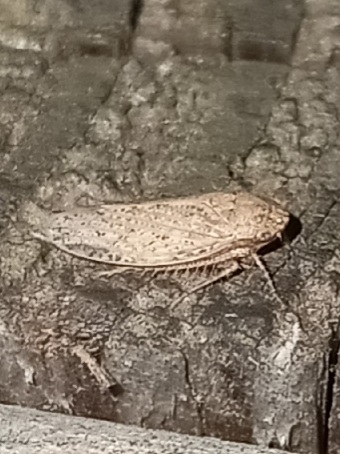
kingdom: Animalia
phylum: Arthropoda
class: Insecta
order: Hemiptera
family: Cicadellidae
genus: Curtara
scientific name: Curtara insularis
